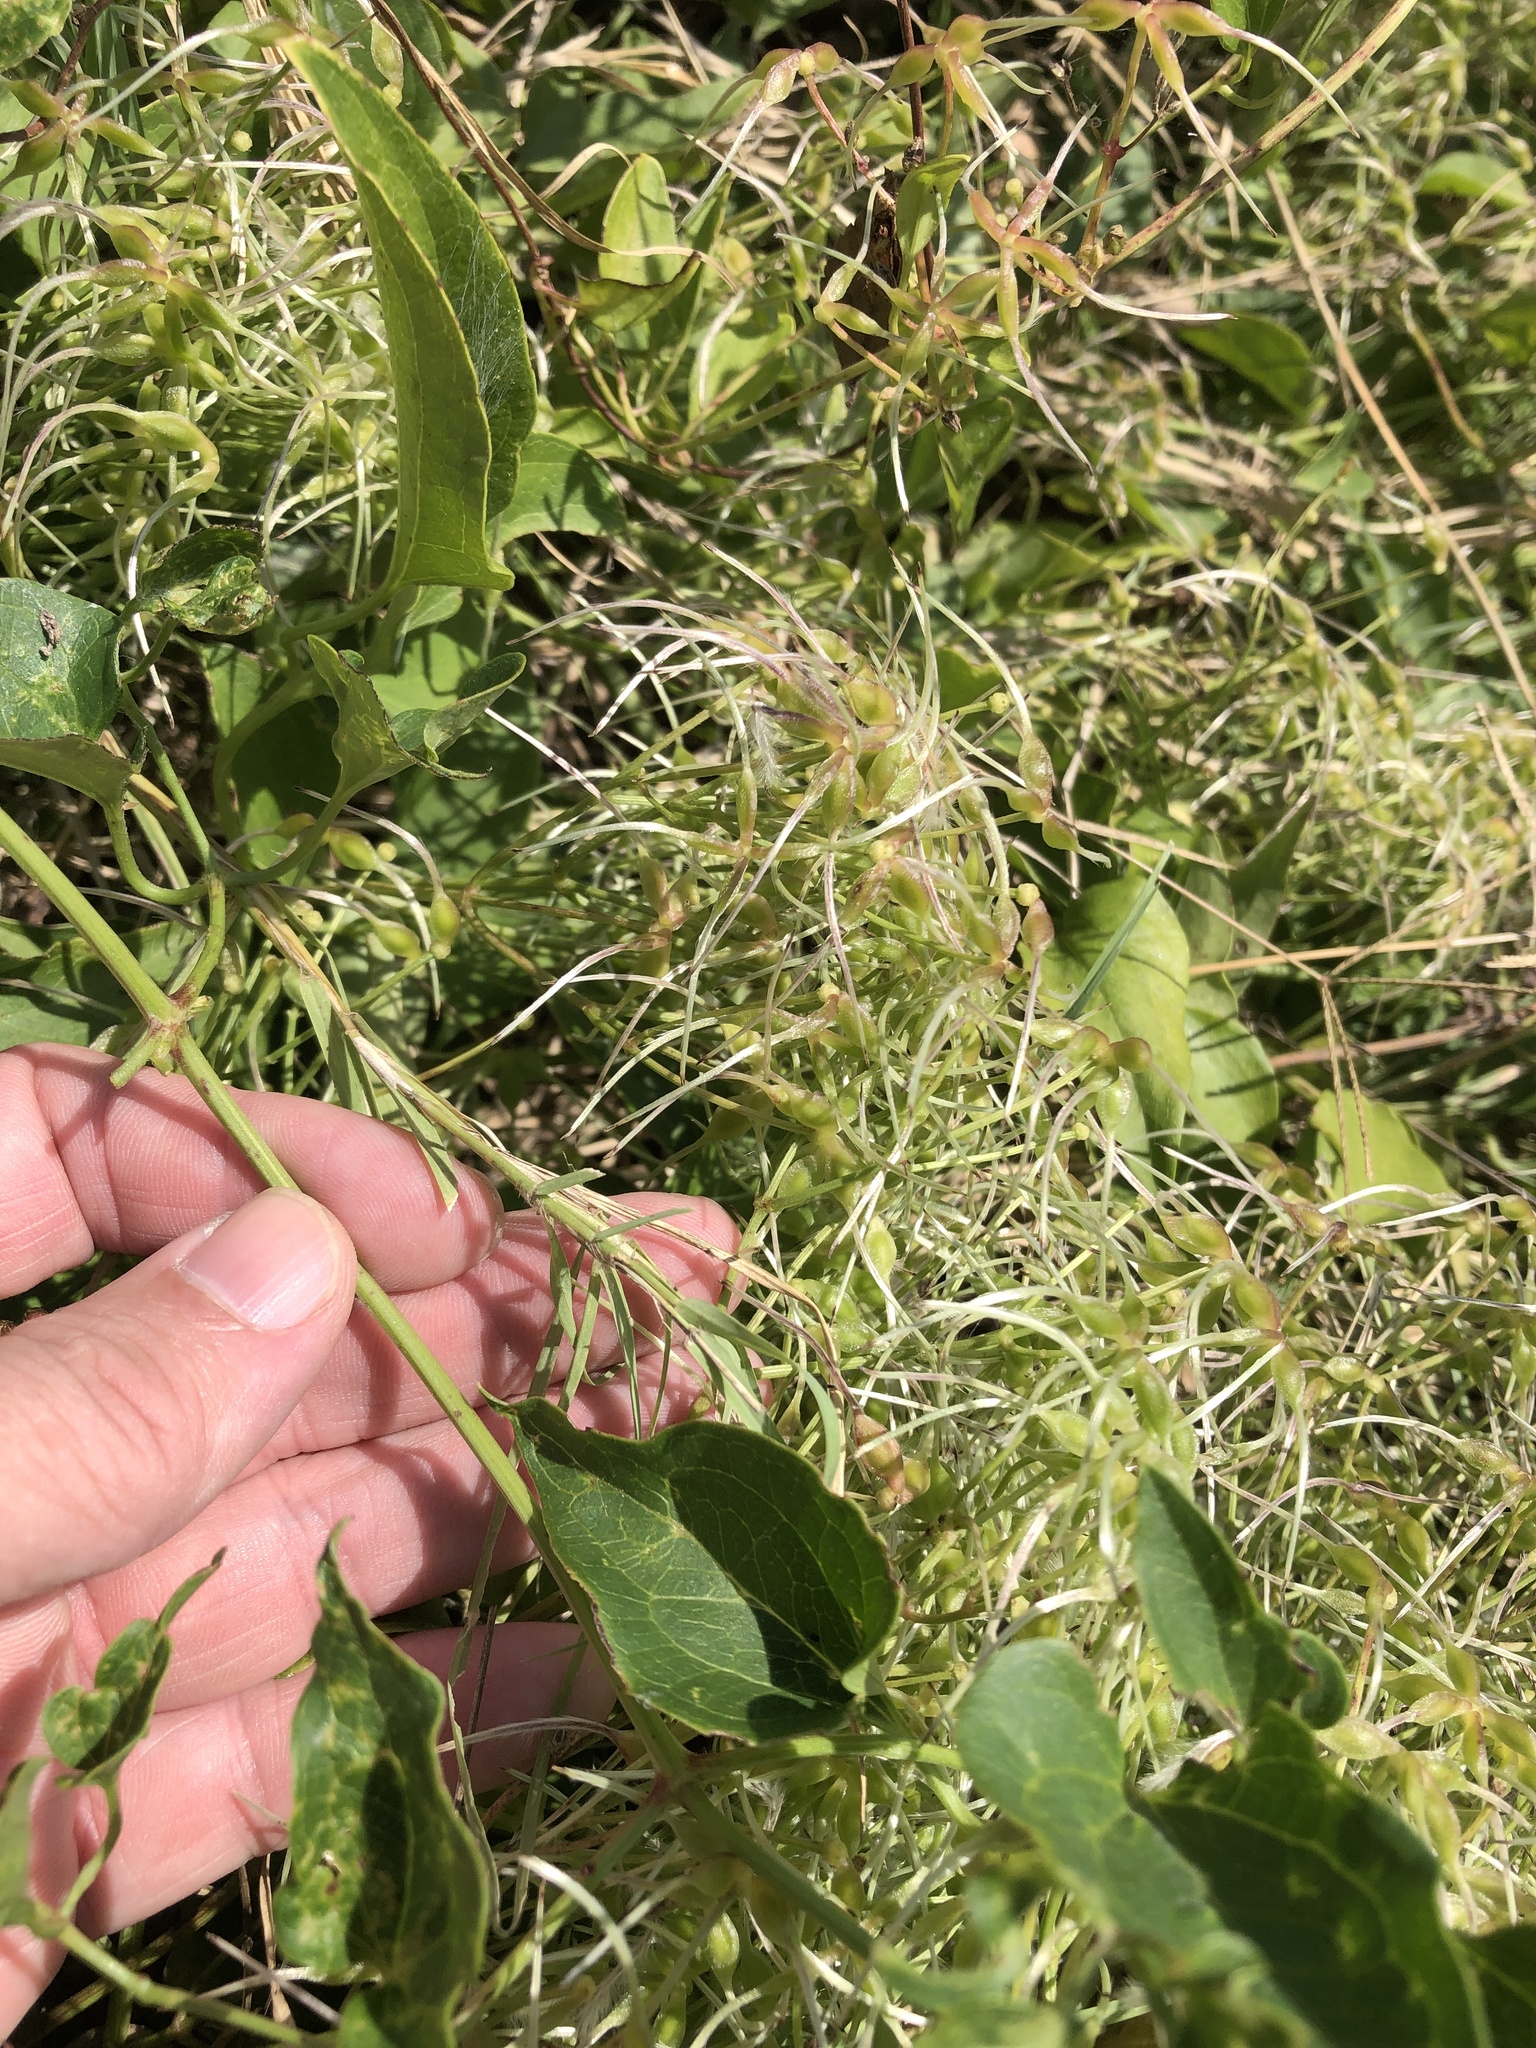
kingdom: Plantae
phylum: Tracheophyta
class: Magnoliopsida
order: Ranunculales
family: Ranunculaceae
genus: Clematis
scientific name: Clematis terniflora
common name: Sweet autumn clematis
